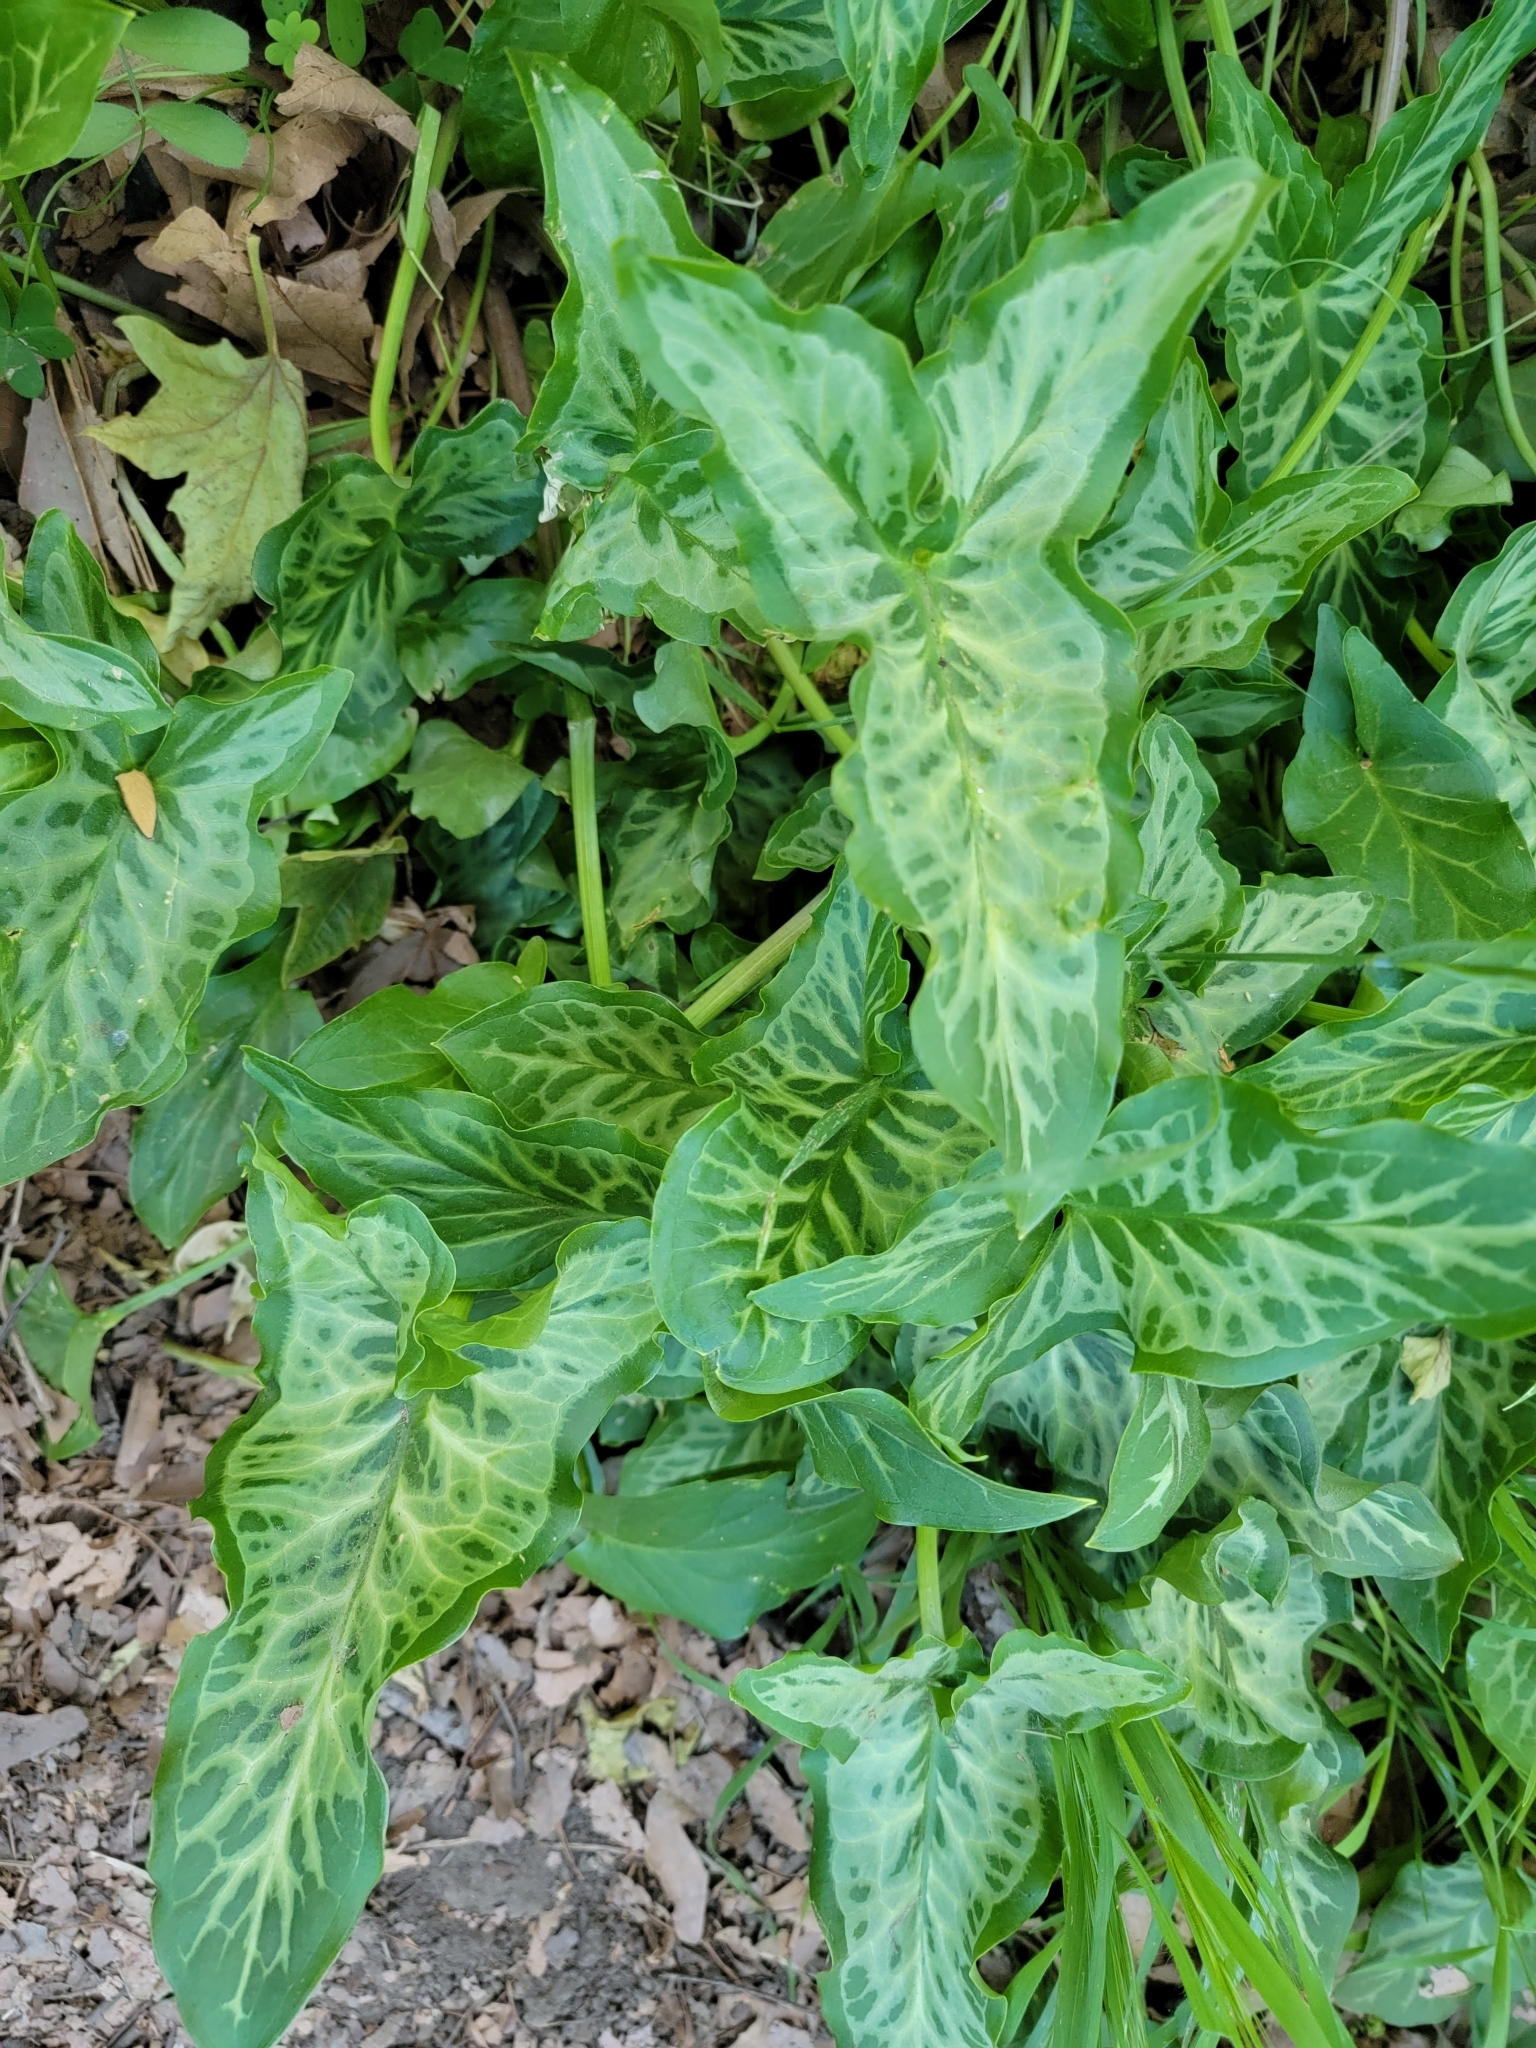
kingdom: Plantae
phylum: Tracheophyta
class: Liliopsida
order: Alismatales
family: Araceae
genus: Arum
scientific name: Arum italicum
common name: Italian lords-and-ladies
